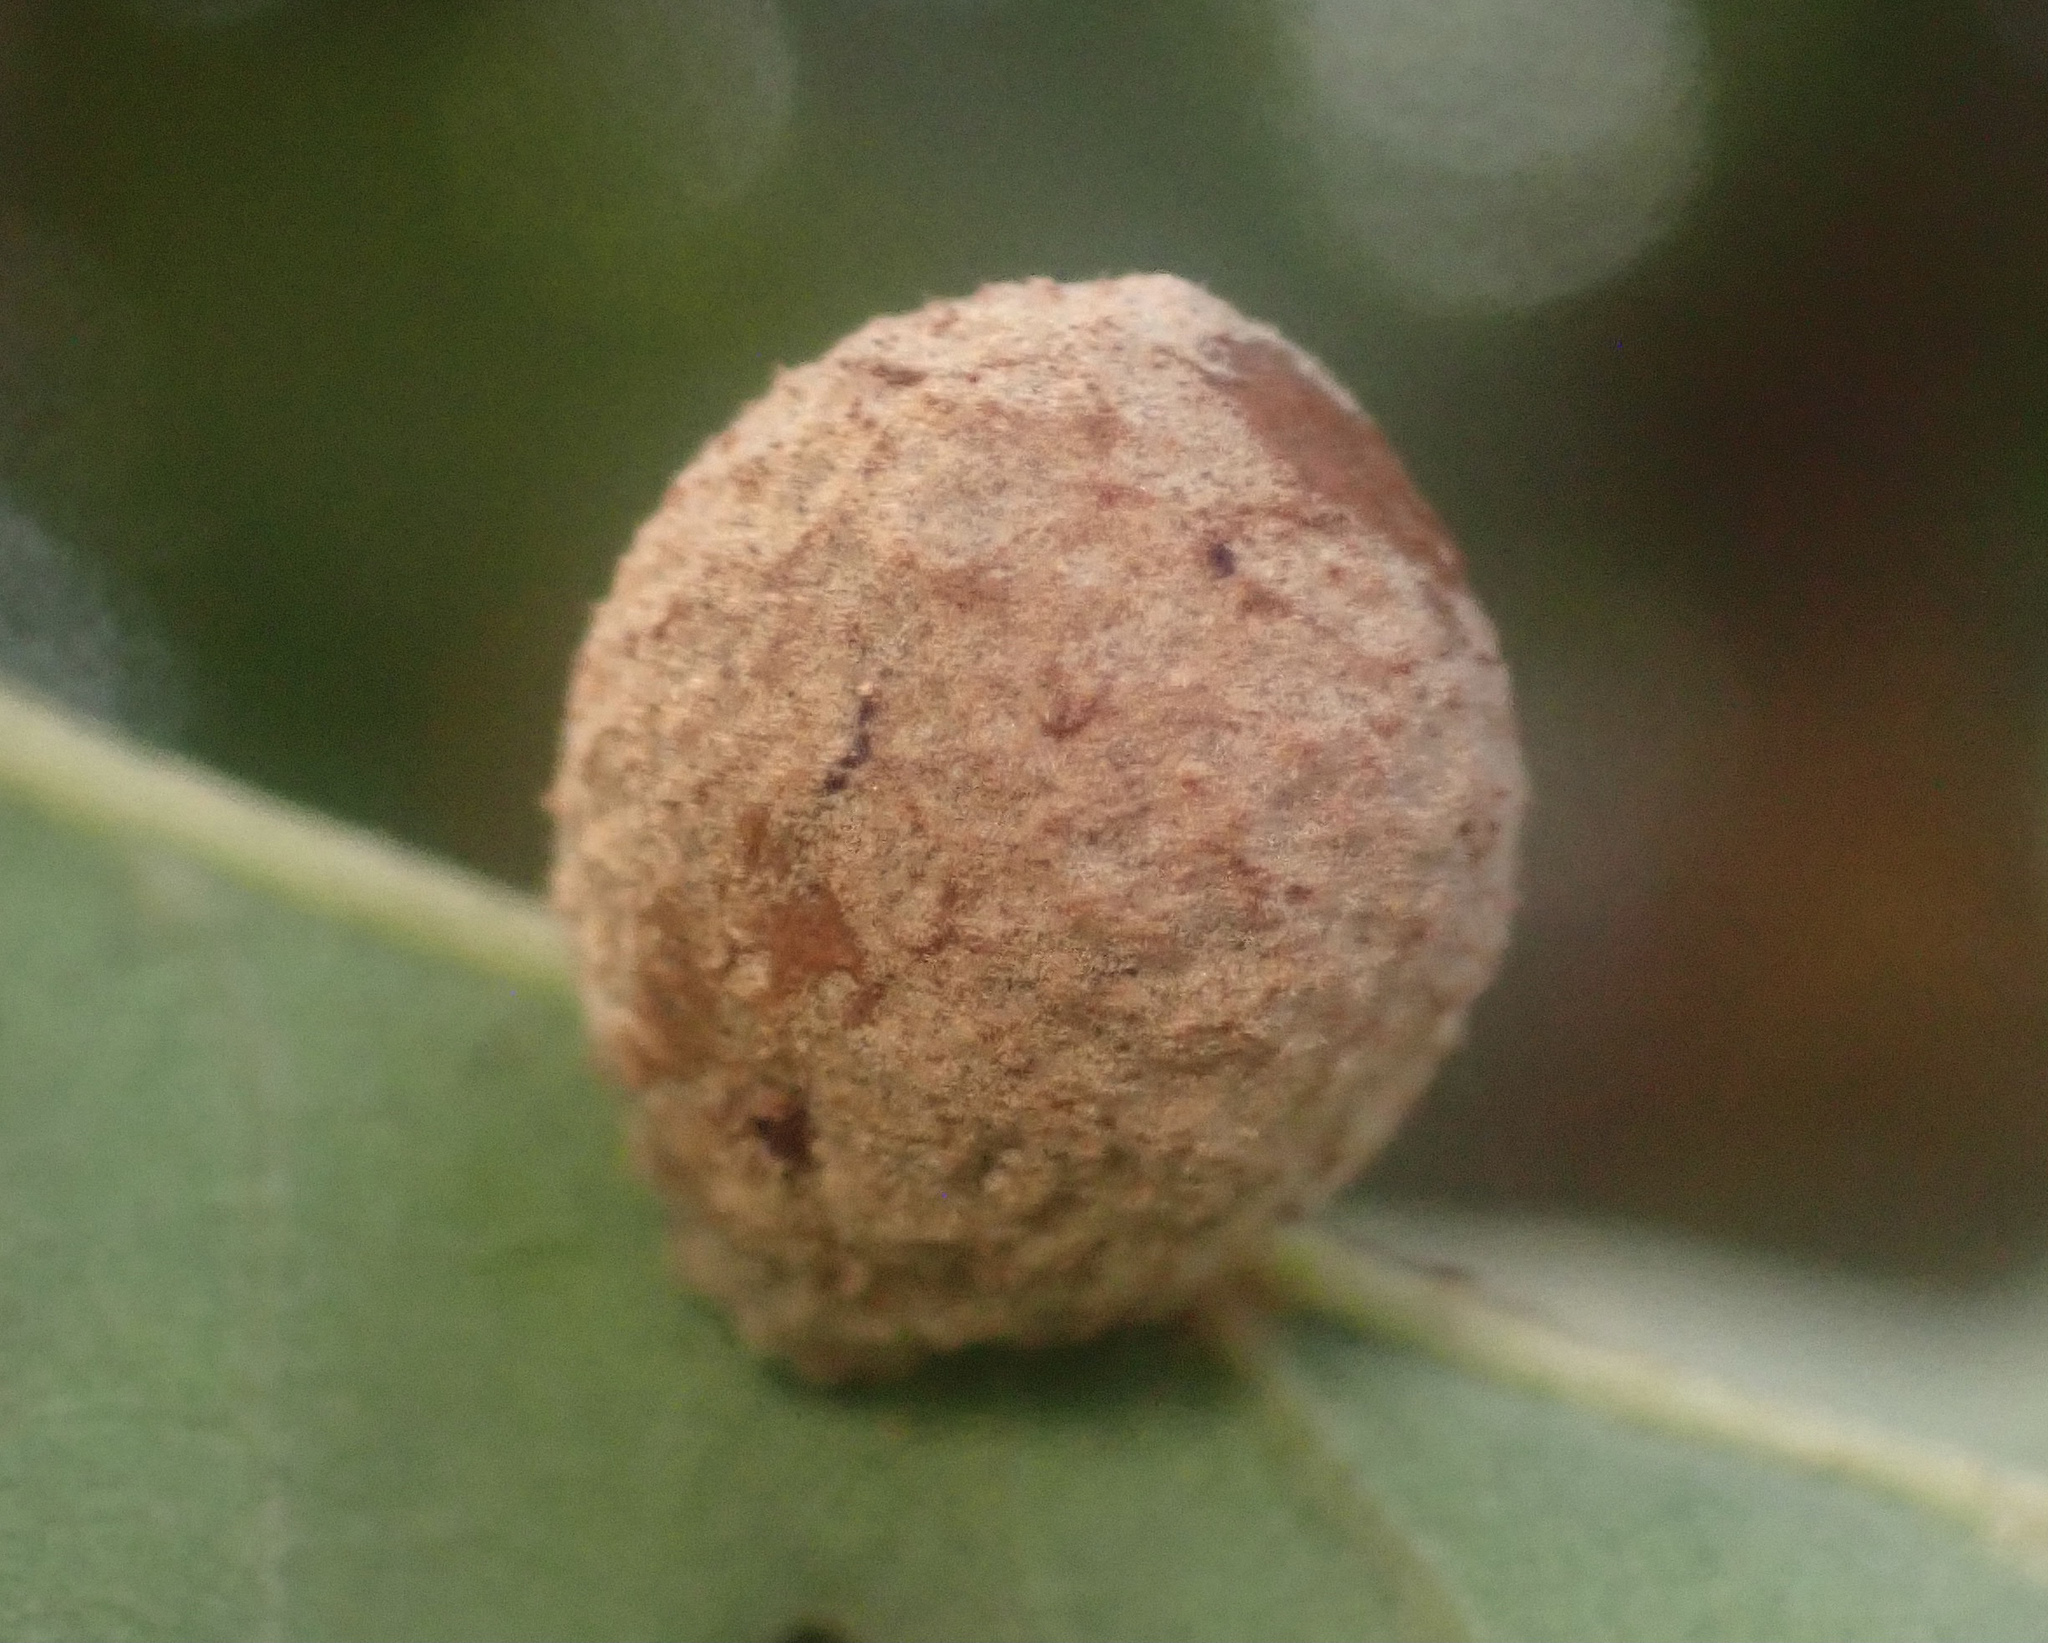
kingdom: Animalia
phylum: Arthropoda
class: Insecta
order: Hymenoptera
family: Cynipidae
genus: Cynips
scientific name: Cynips conspicua
